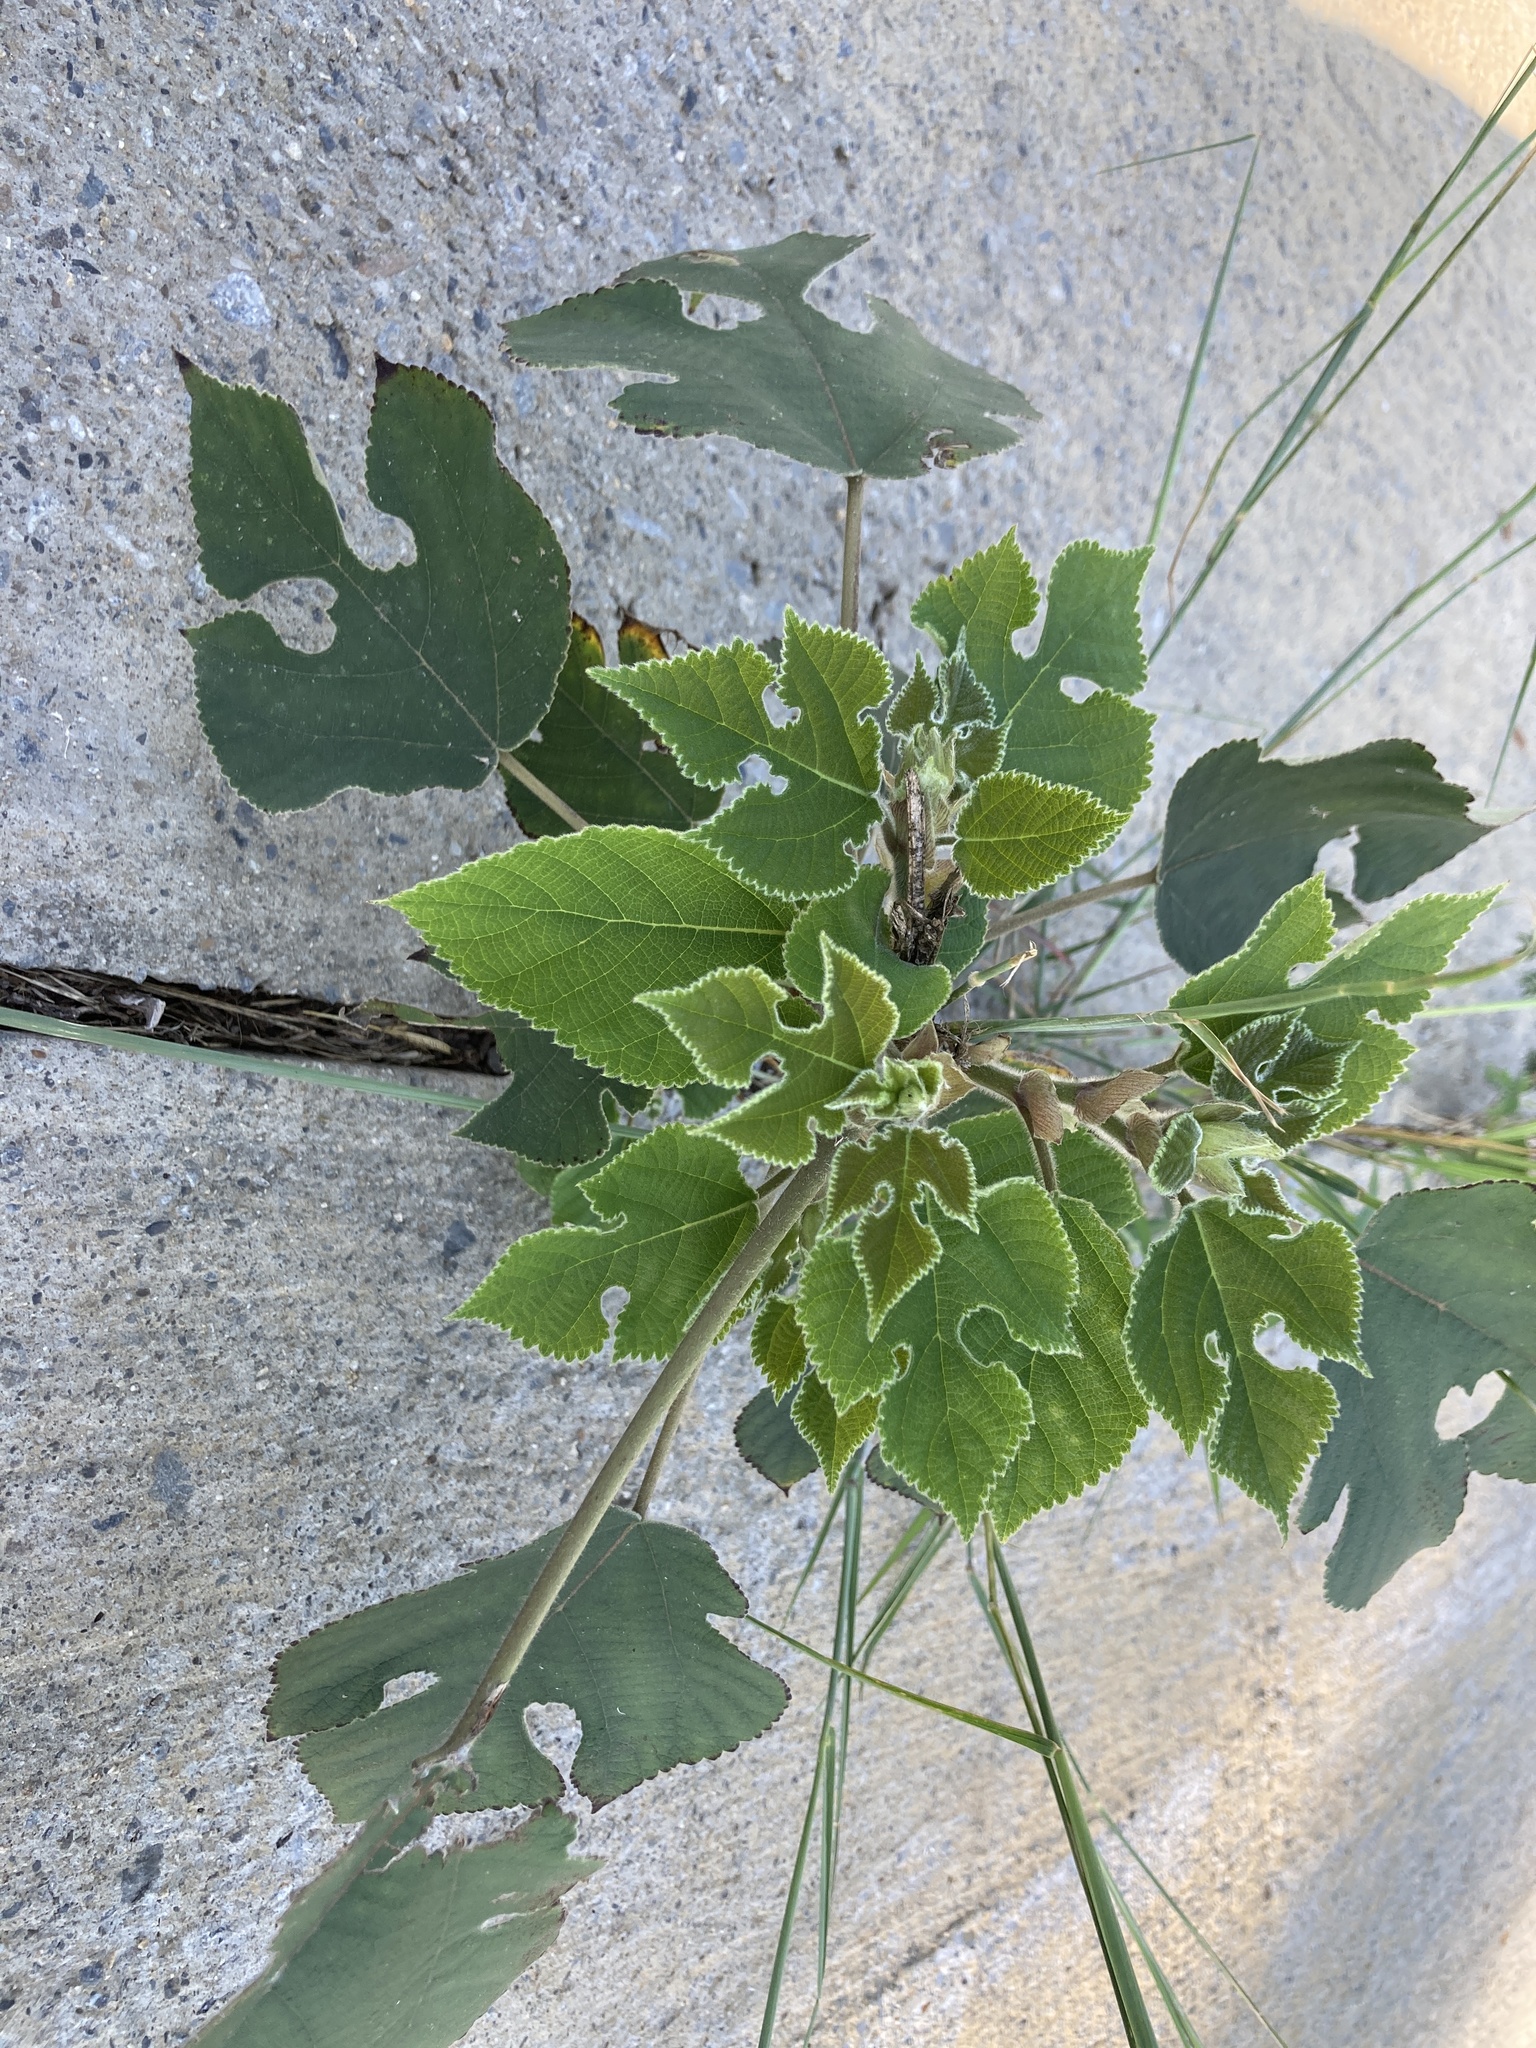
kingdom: Plantae
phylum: Tracheophyta
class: Magnoliopsida
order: Rosales
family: Moraceae
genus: Broussonetia
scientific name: Broussonetia papyrifera
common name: Paper mulberry
